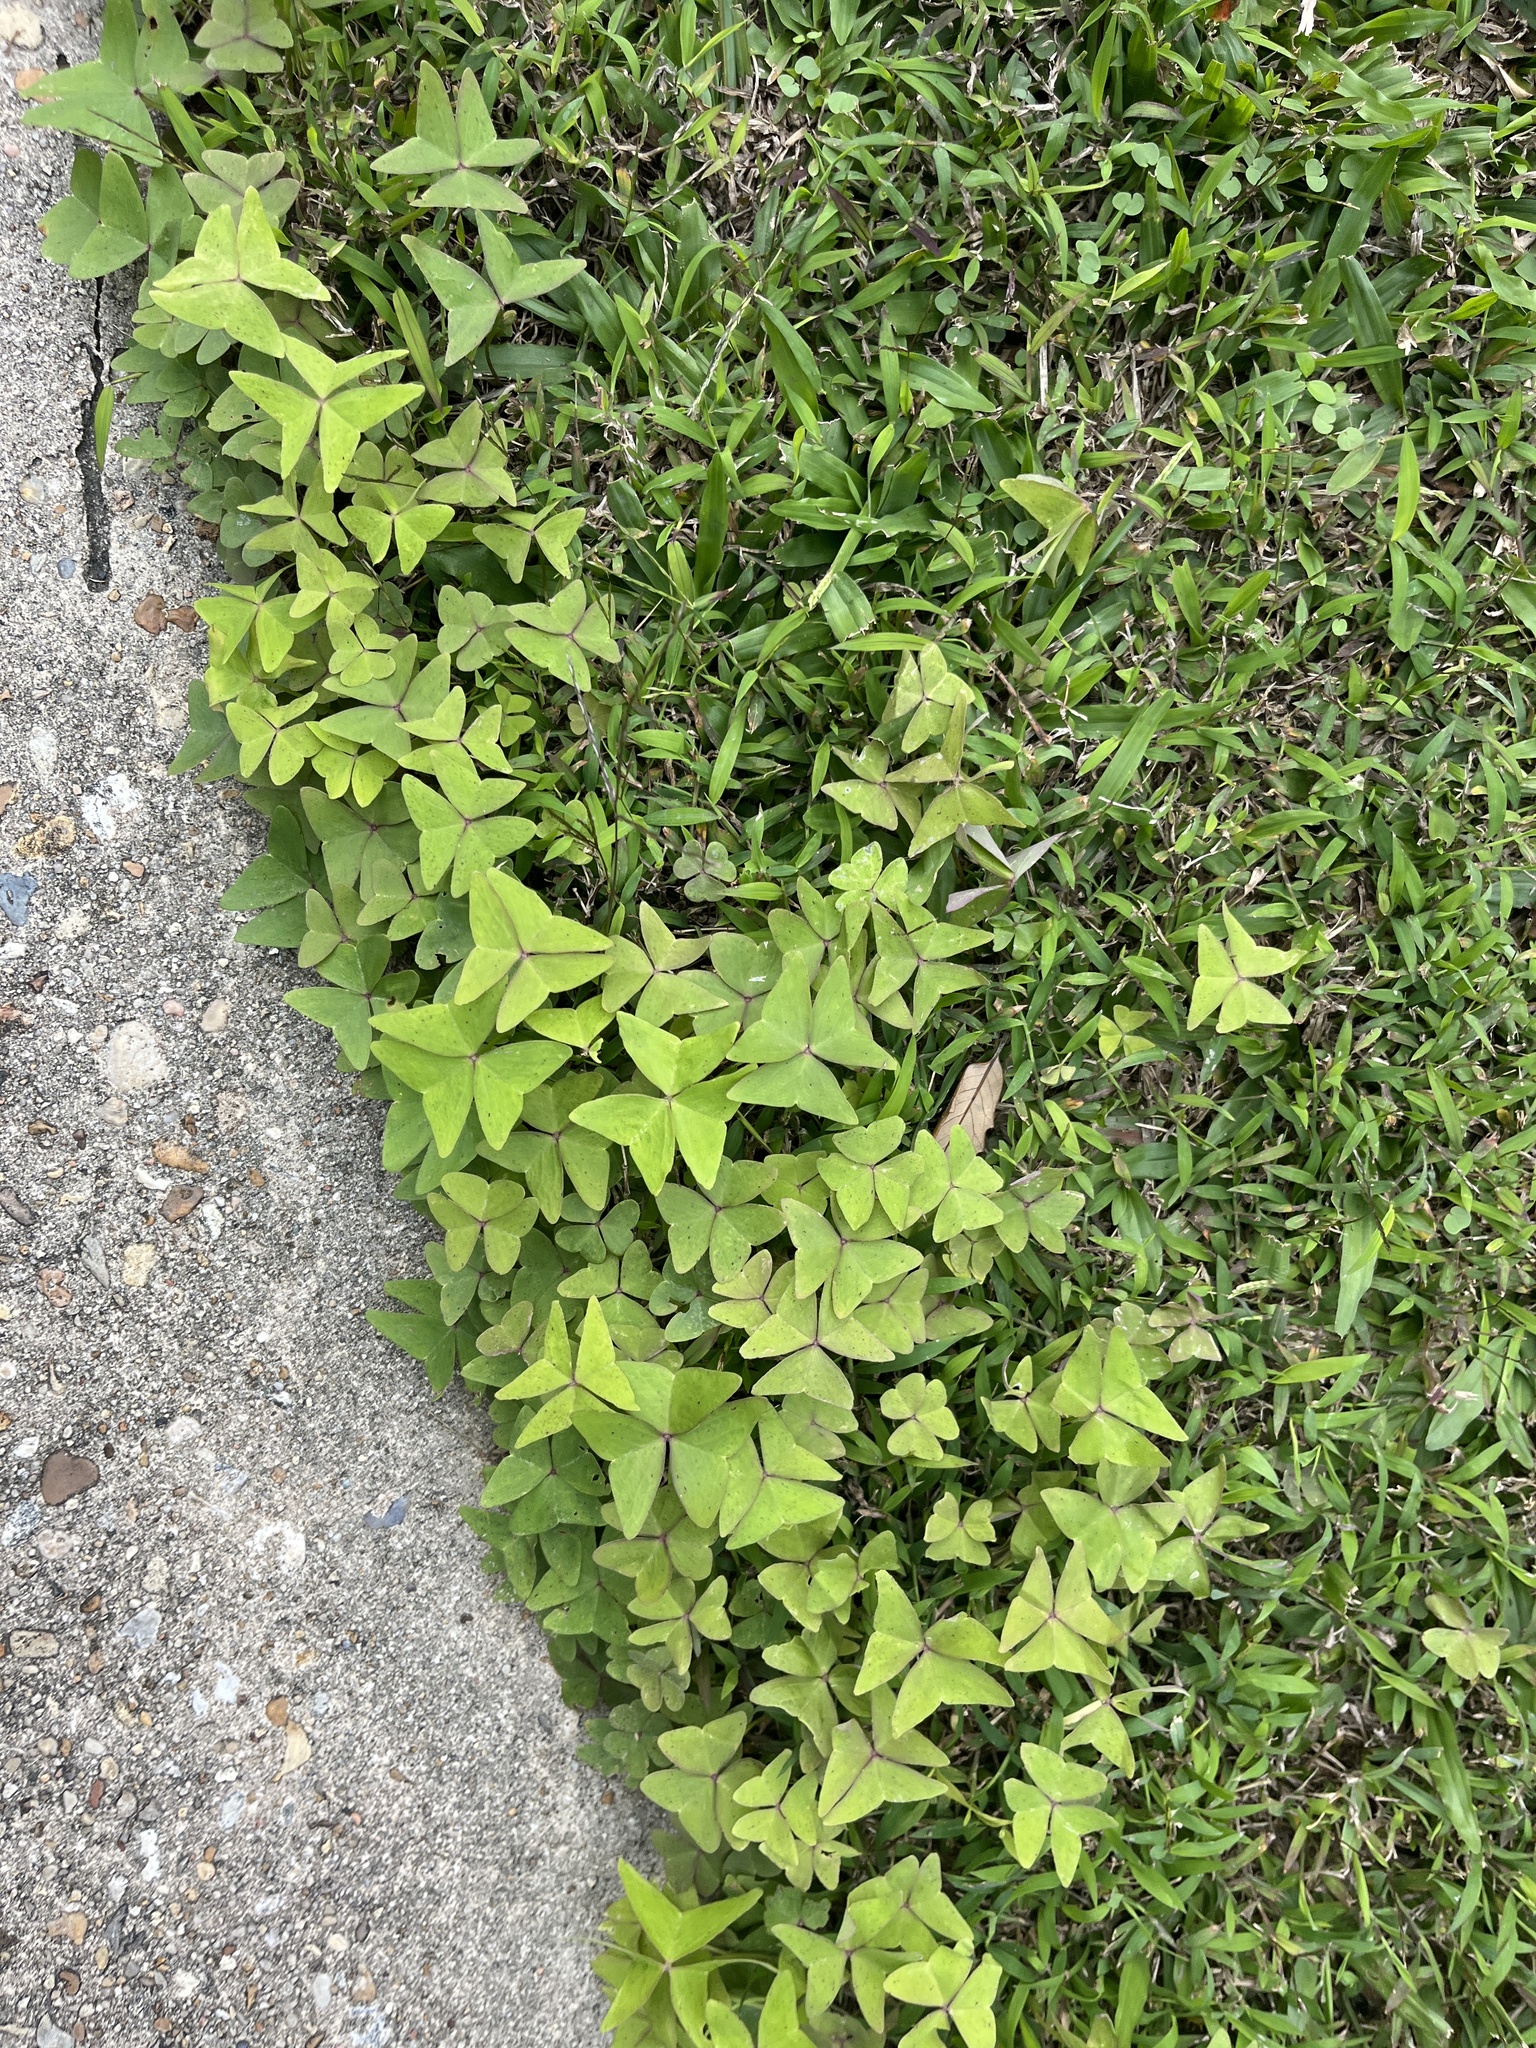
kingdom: Plantae
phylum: Tracheophyta
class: Magnoliopsida
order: Oxalidales
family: Oxalidaceae
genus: Oxalis
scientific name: Oxalis intermedia
